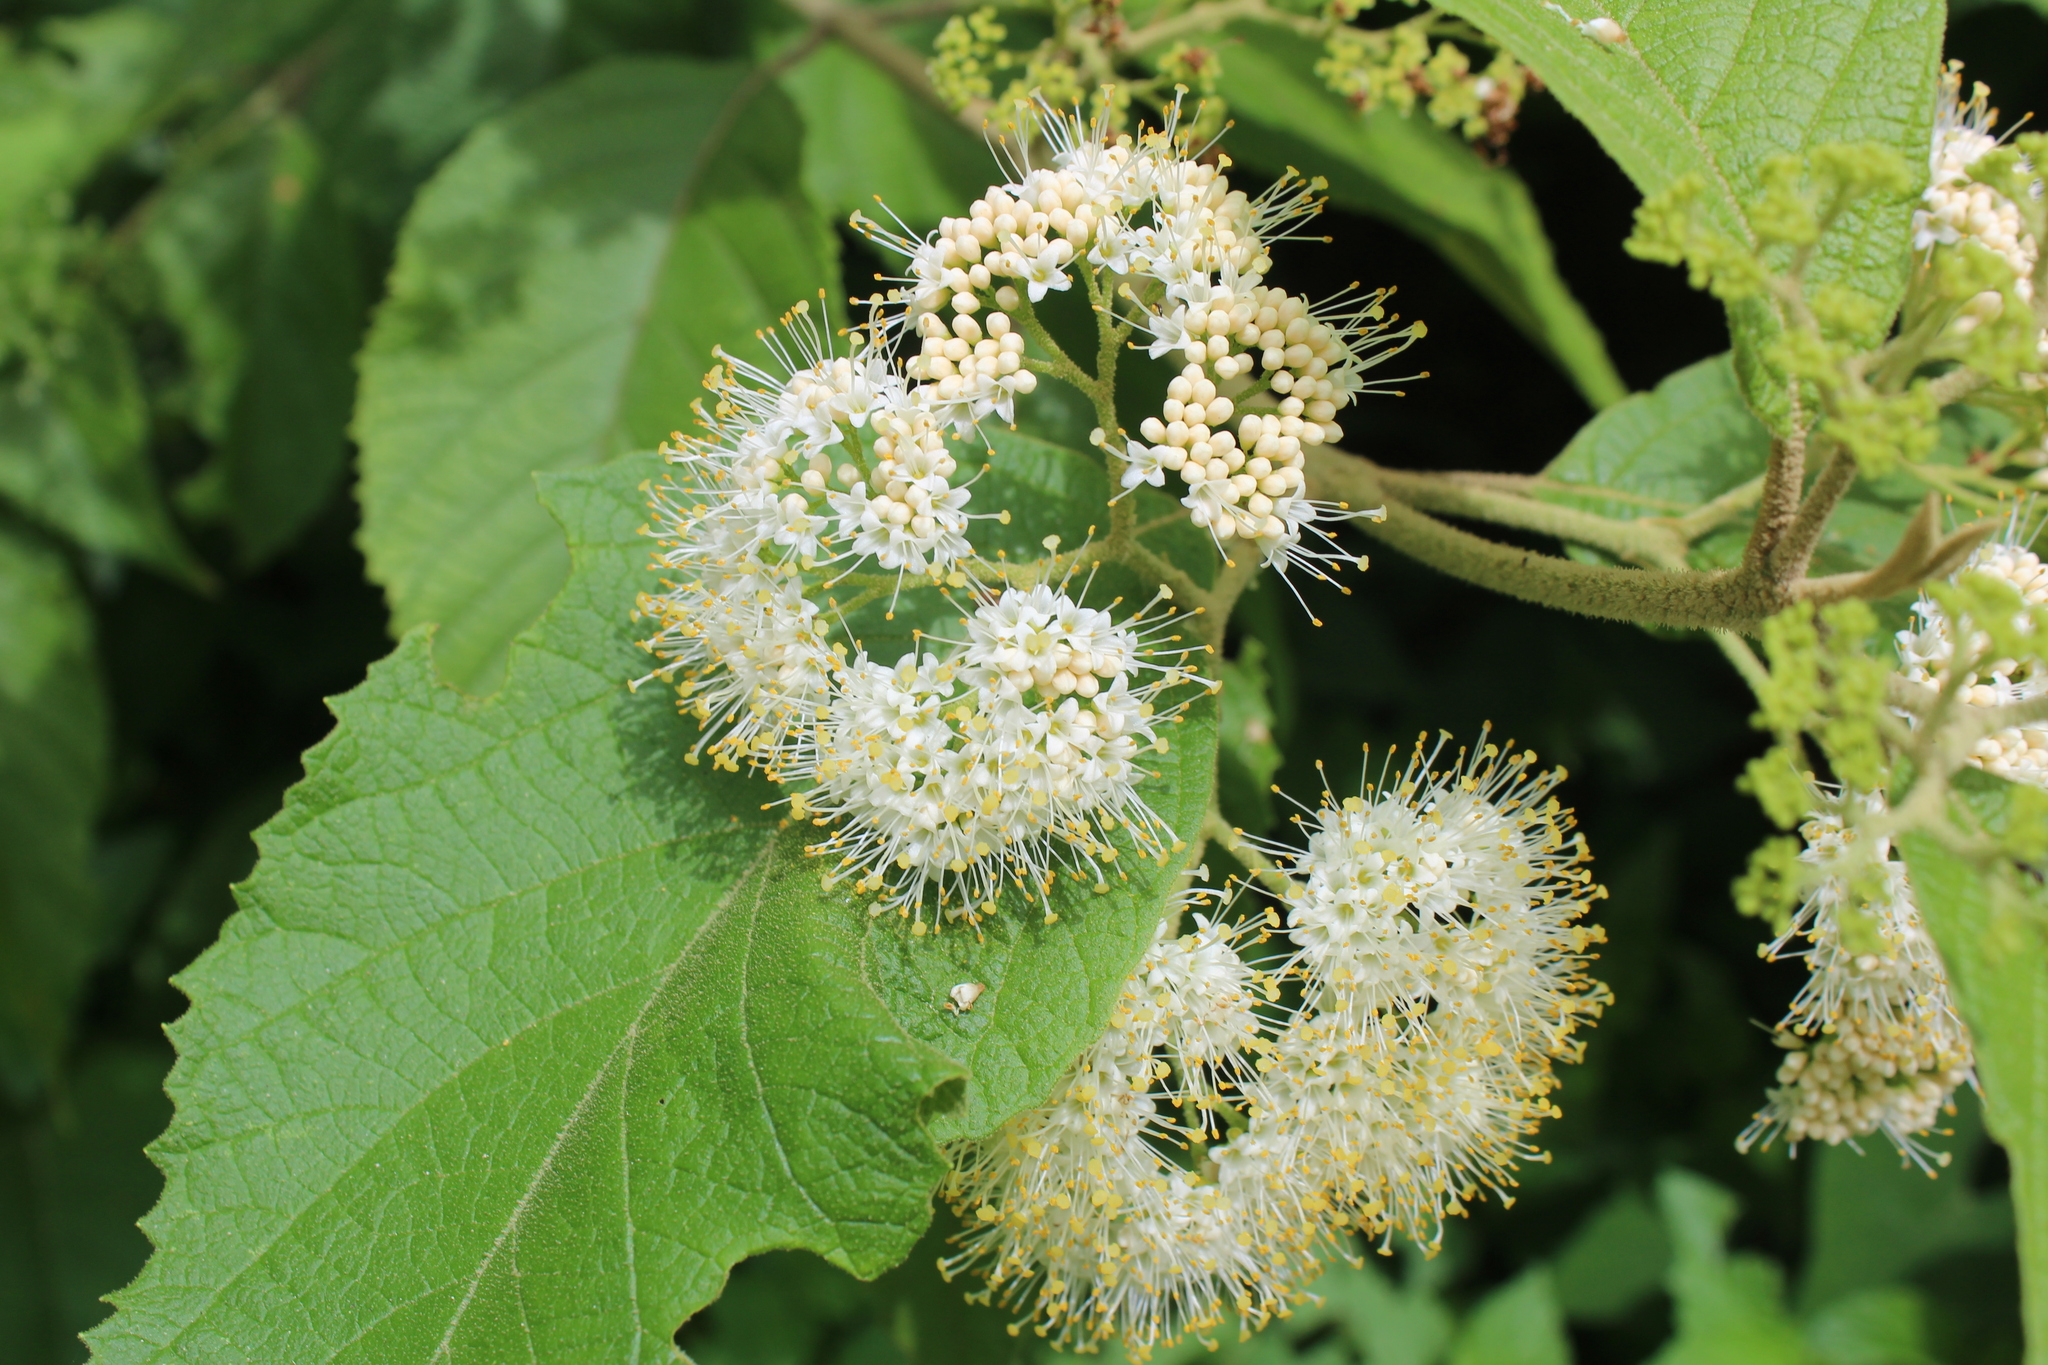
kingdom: Plantae
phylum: Tracheophyta
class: Magnoliopsida
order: Lamiales
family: Lamiaceae
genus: Callicarpa
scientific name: Callicarpa acuminata
